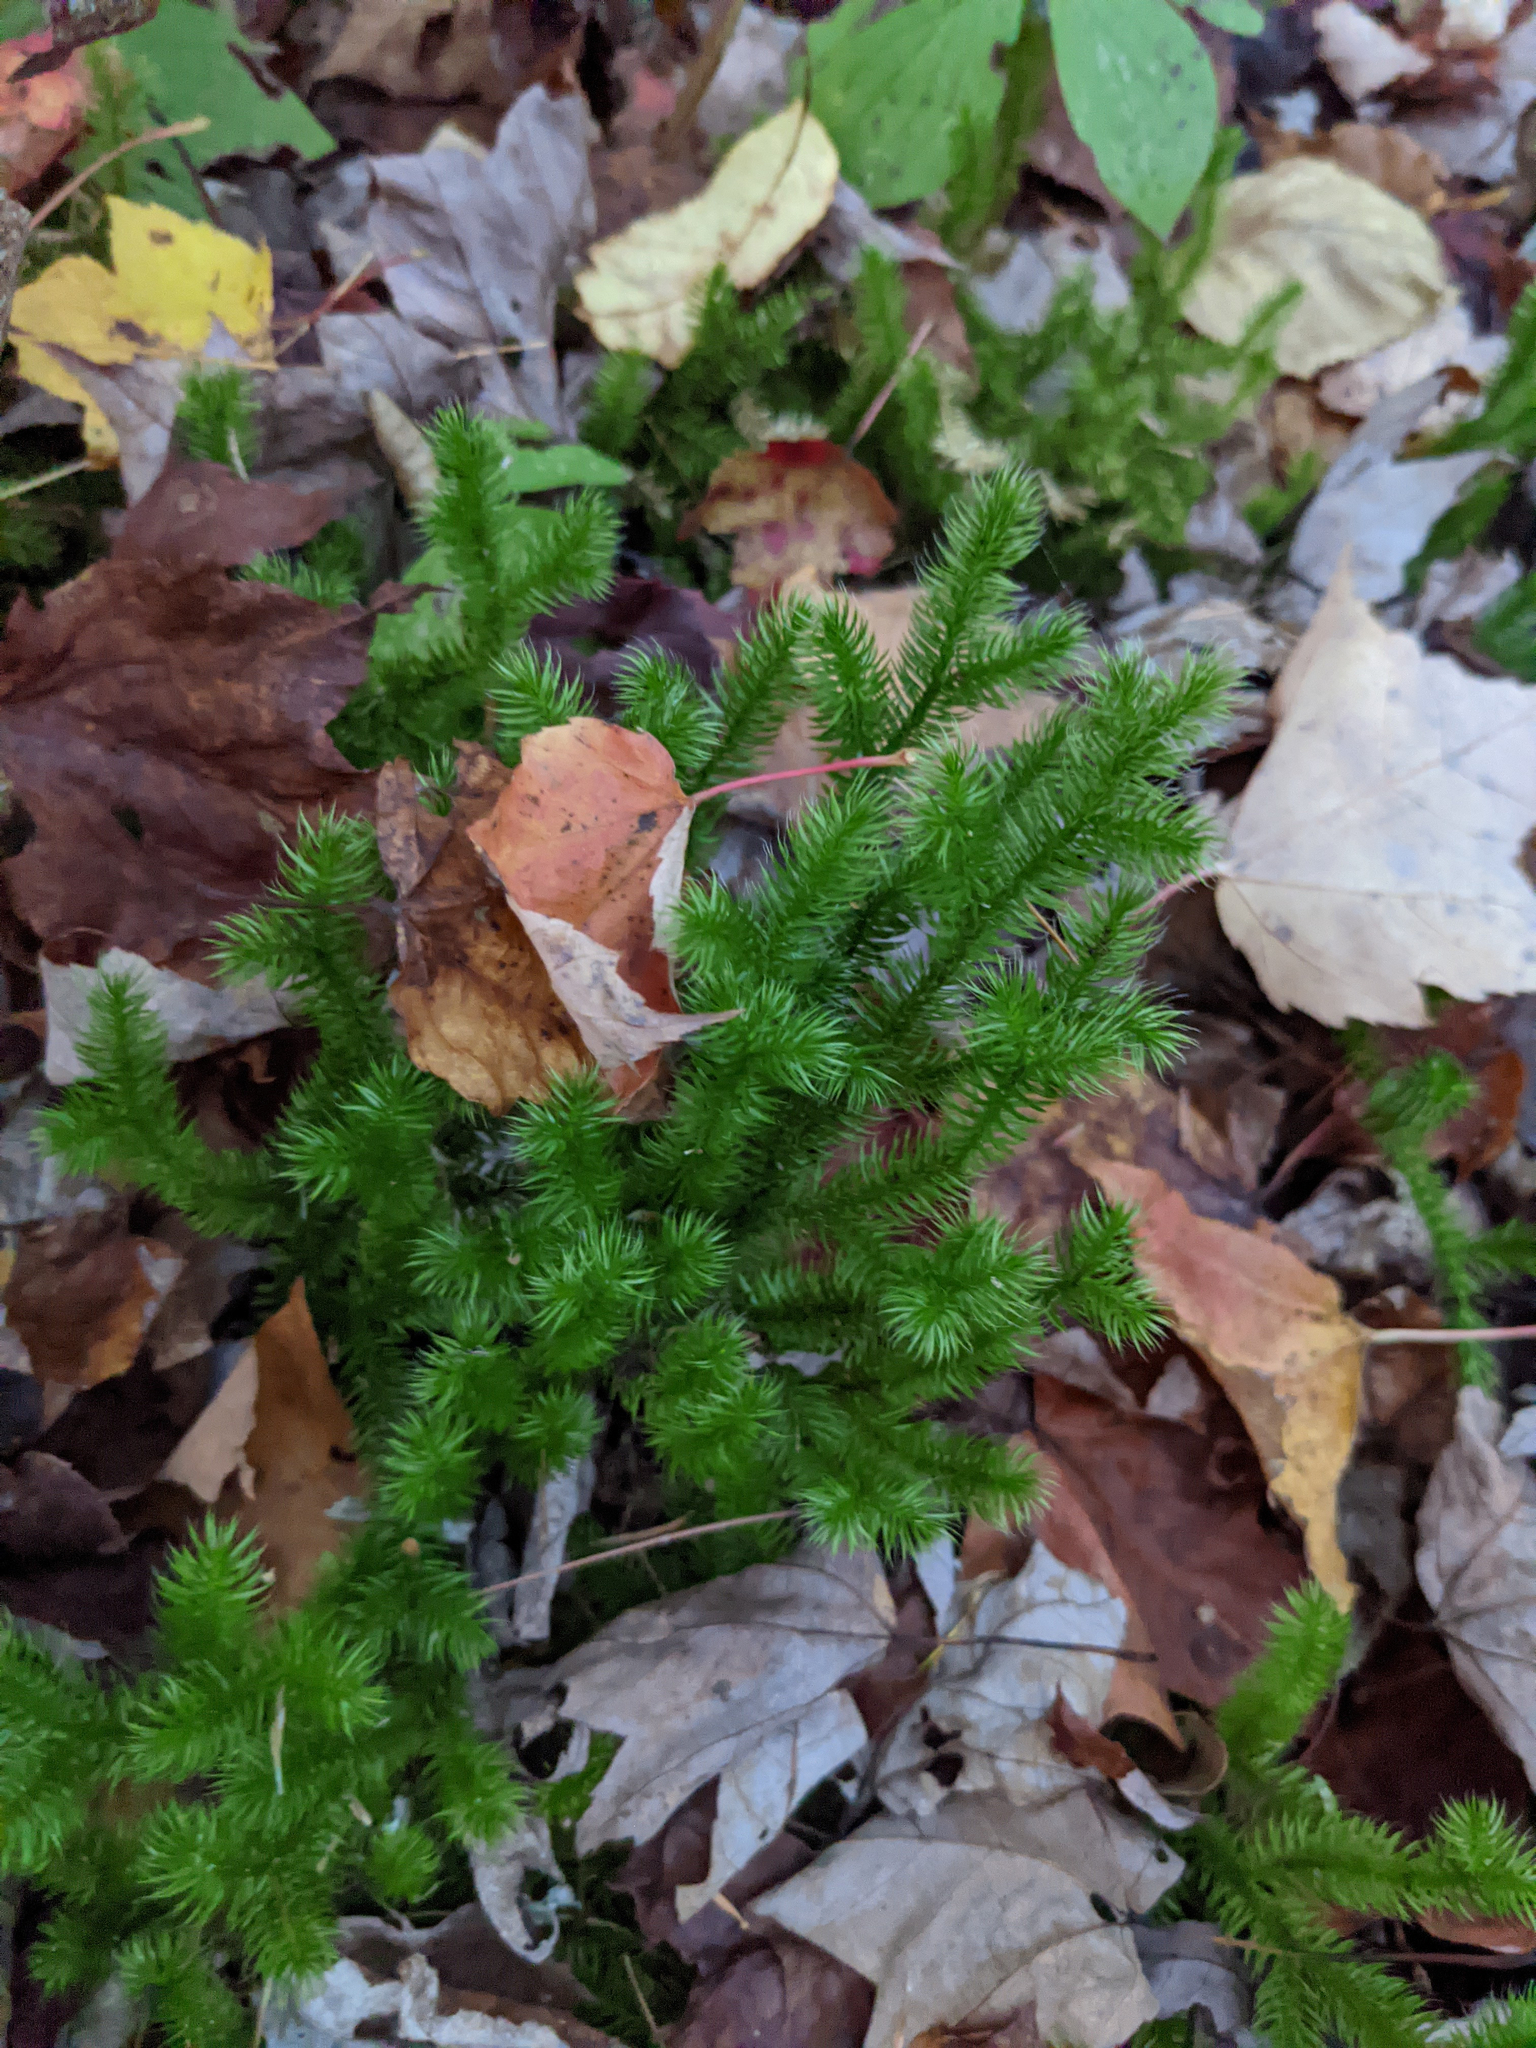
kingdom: Plantae
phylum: Tracheophyta
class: Lycopodiopsida
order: Lycopodiales
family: Lycopodiaceae
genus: Lycopodium
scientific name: Lycopodium clavatum
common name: Stag's-horn clubmoss
